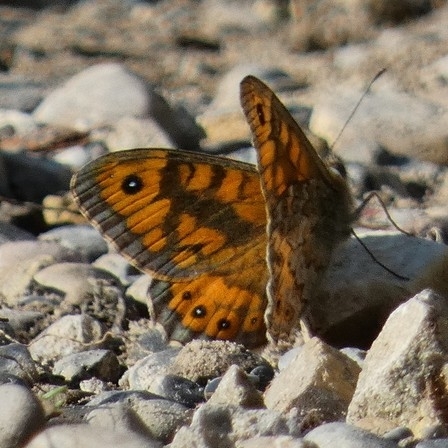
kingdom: Animalia
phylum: Arthropoda
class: Insecta
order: Lepidoptera
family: Nymphalidae
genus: Pararge
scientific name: Pararge Lasiommata megera
